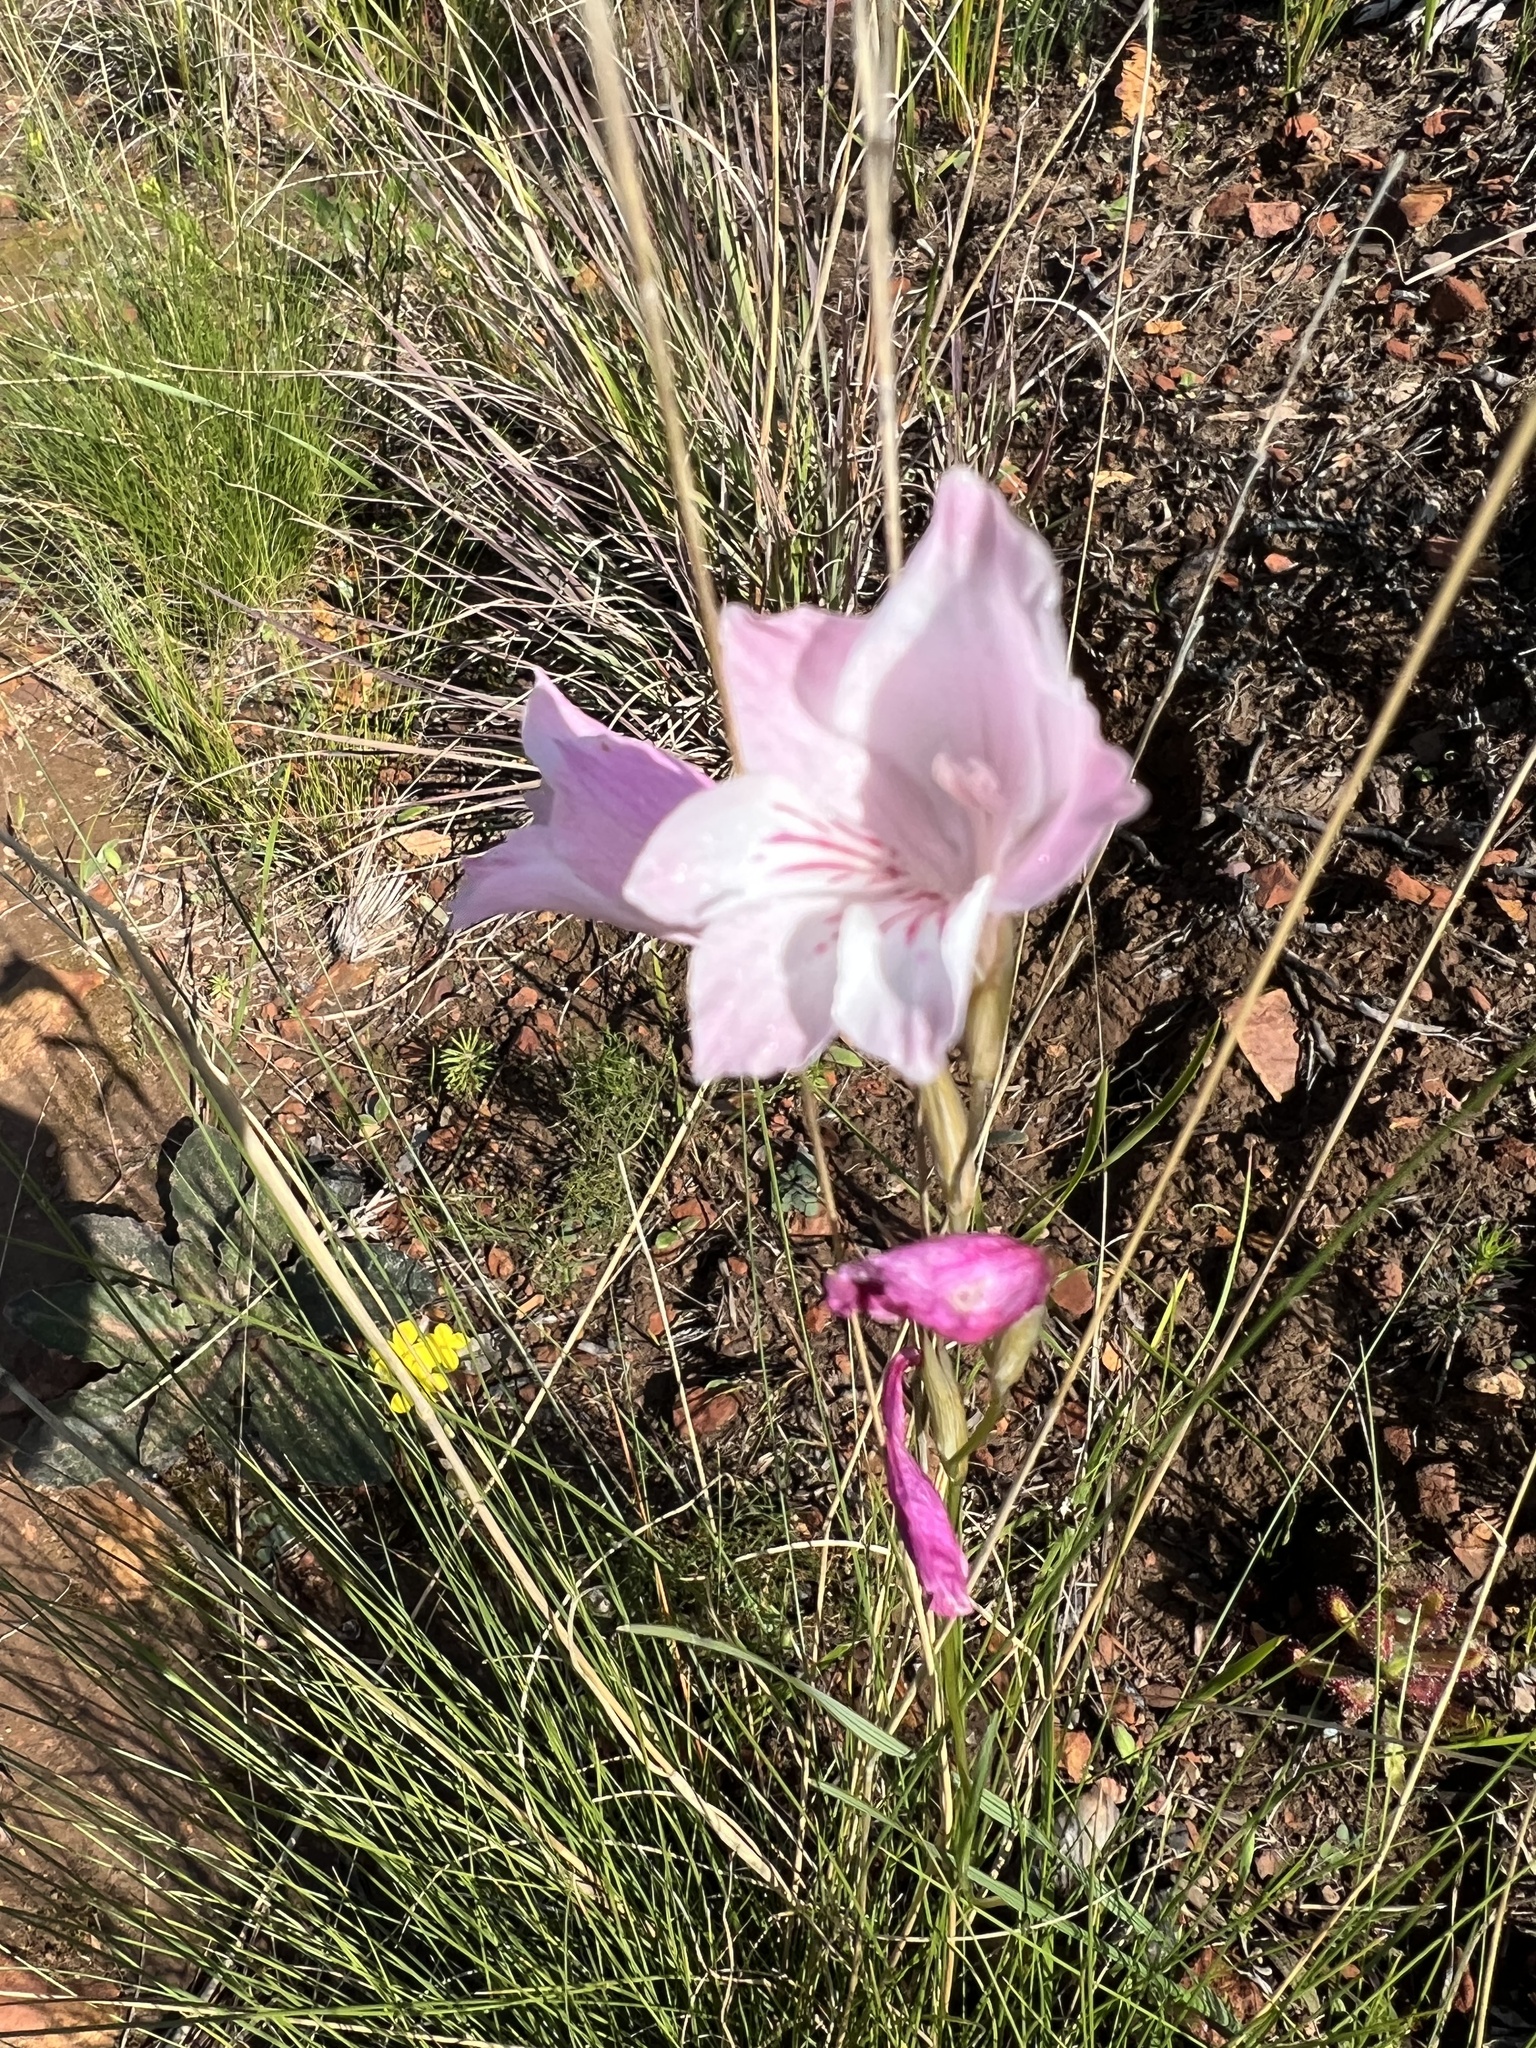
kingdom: Plantae
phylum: Tracheophyta
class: Liliopsida
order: Asparagales
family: Iridaceae
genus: Gladiolus
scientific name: Gladiolus hirsutus
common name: Small pink afrikaner
